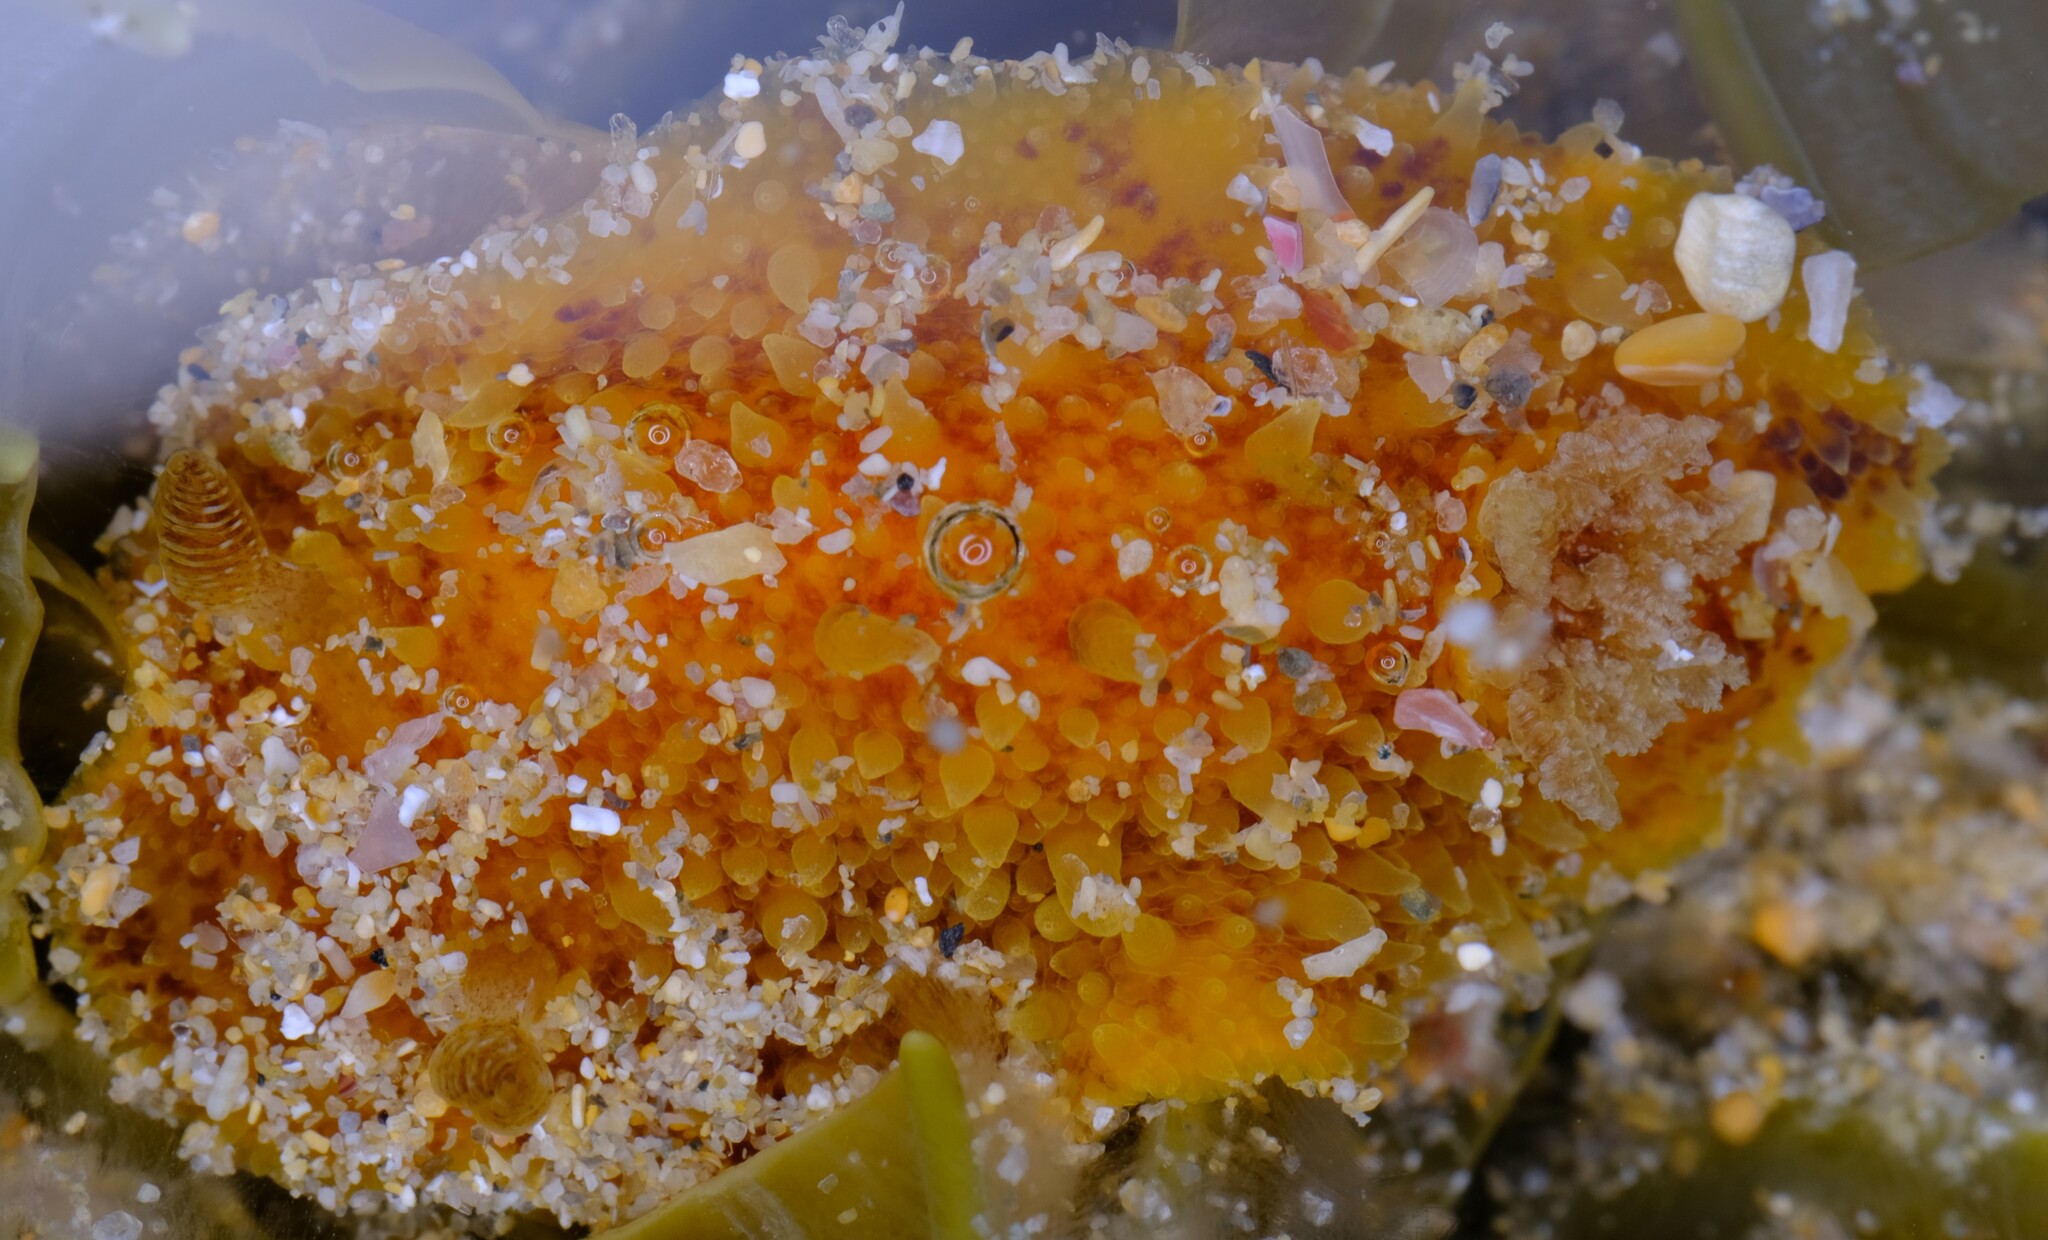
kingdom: Animalia
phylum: Mollusca
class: Gastropoda
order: Nudibranchia
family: Discodorididae
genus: Thordisa
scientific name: Thordisa verrucosa
